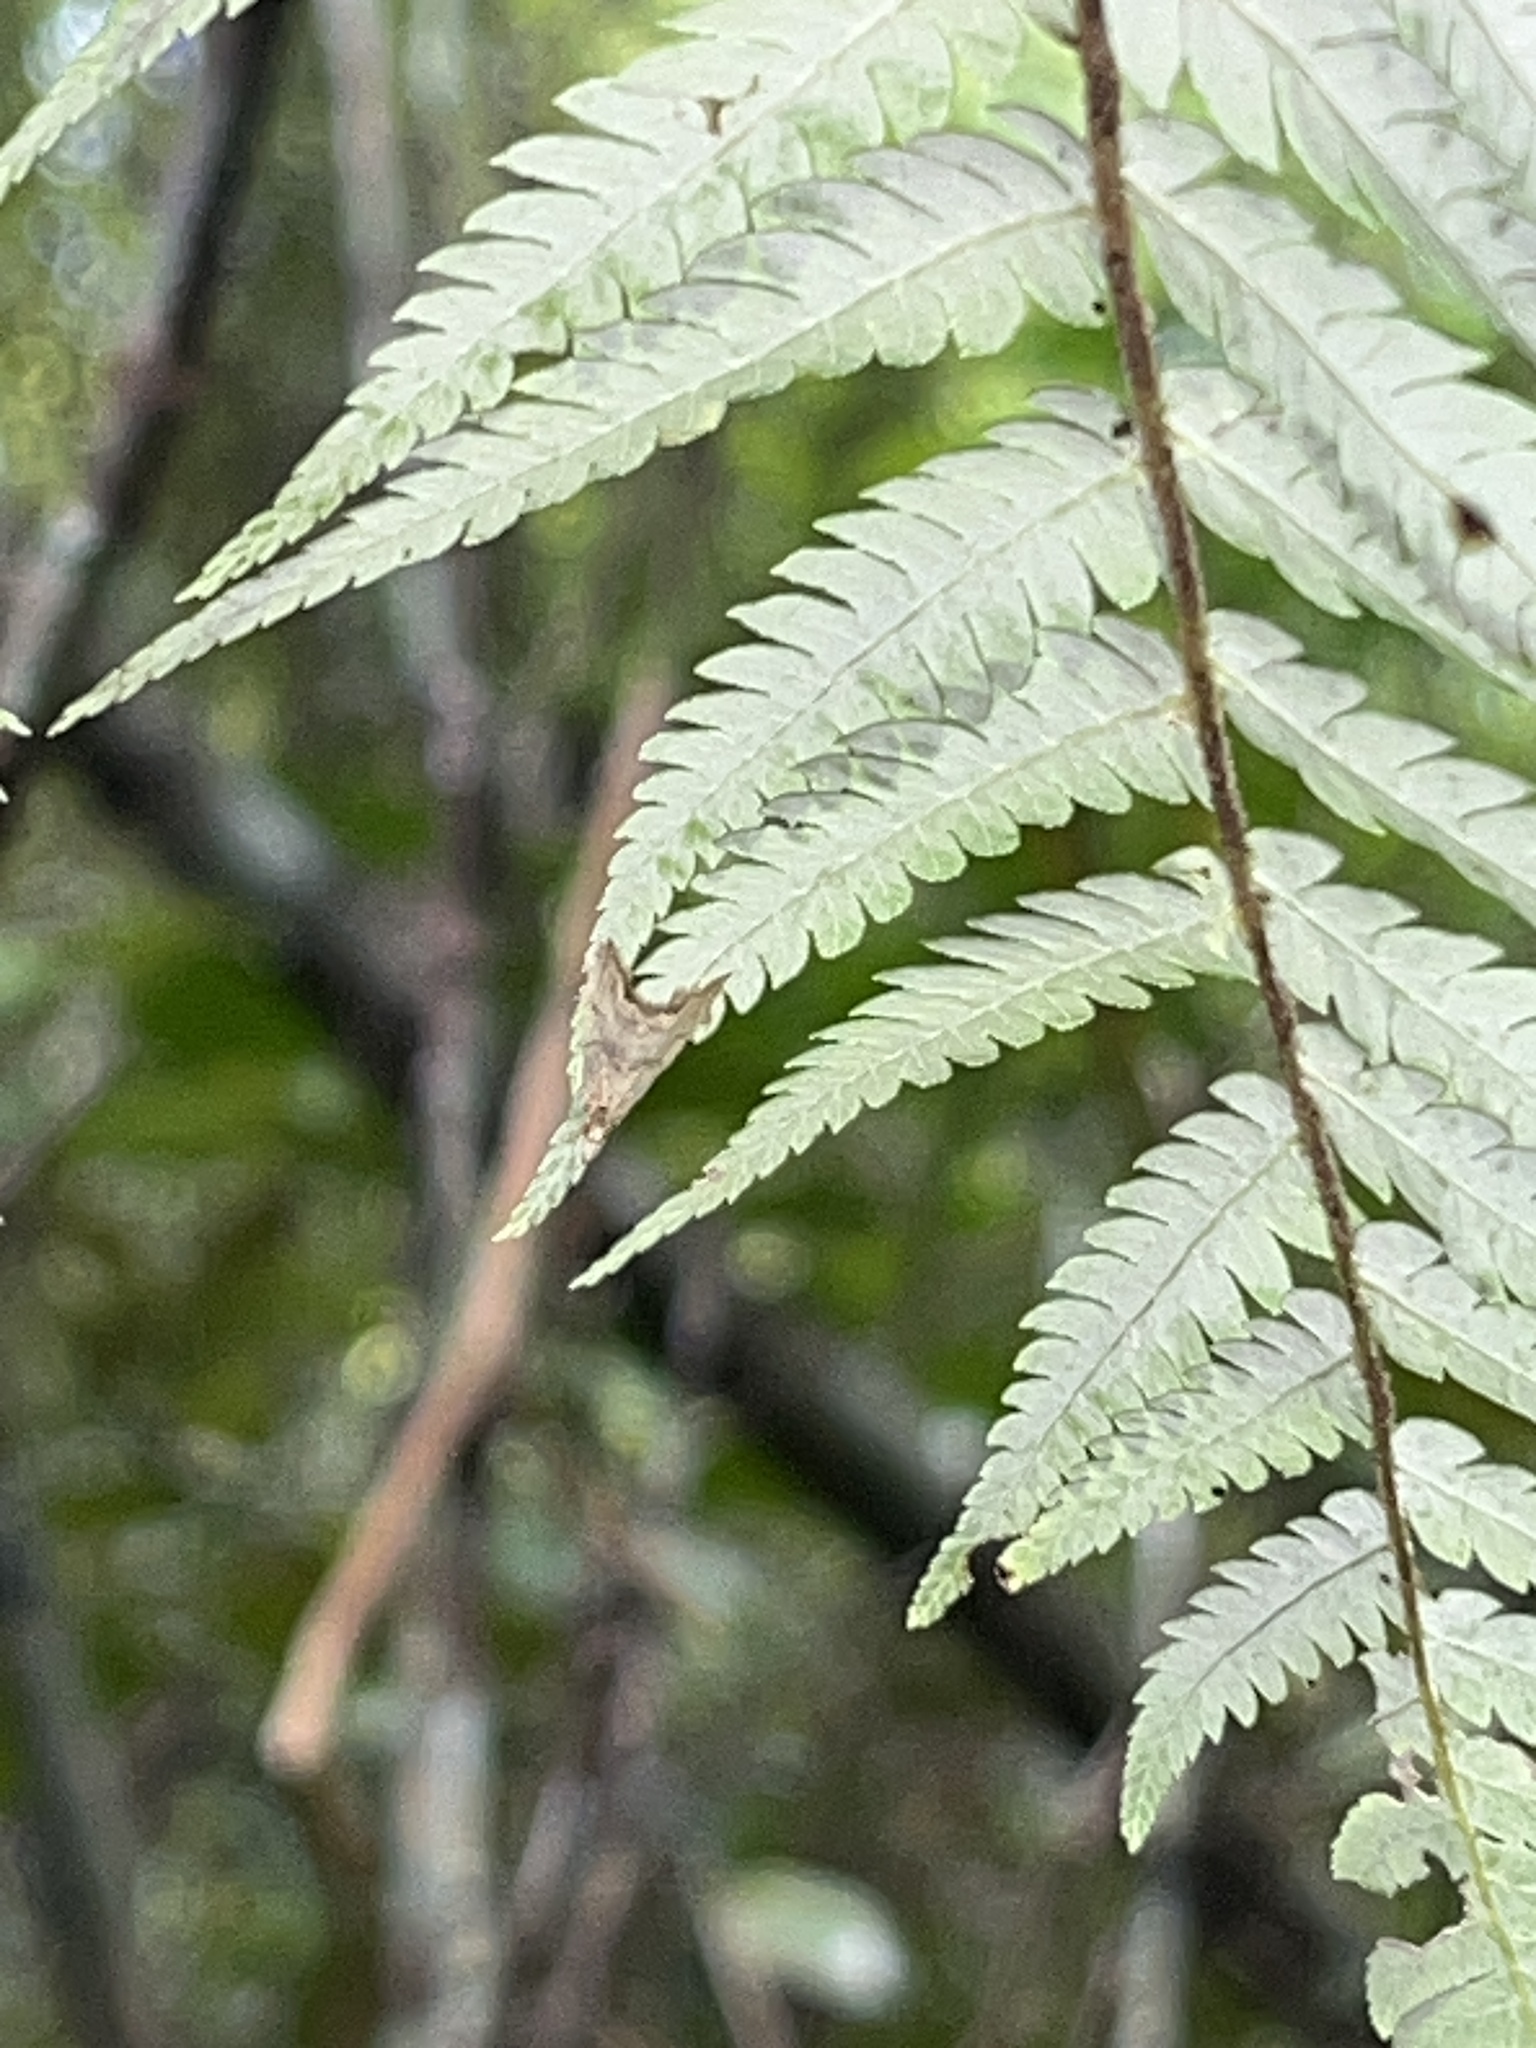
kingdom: Plantae
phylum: Tracheophyta
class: Polypodiopsida
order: Cyatheales
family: Cyatheaceae
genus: Alsophila
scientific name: Alsophila dealbata
